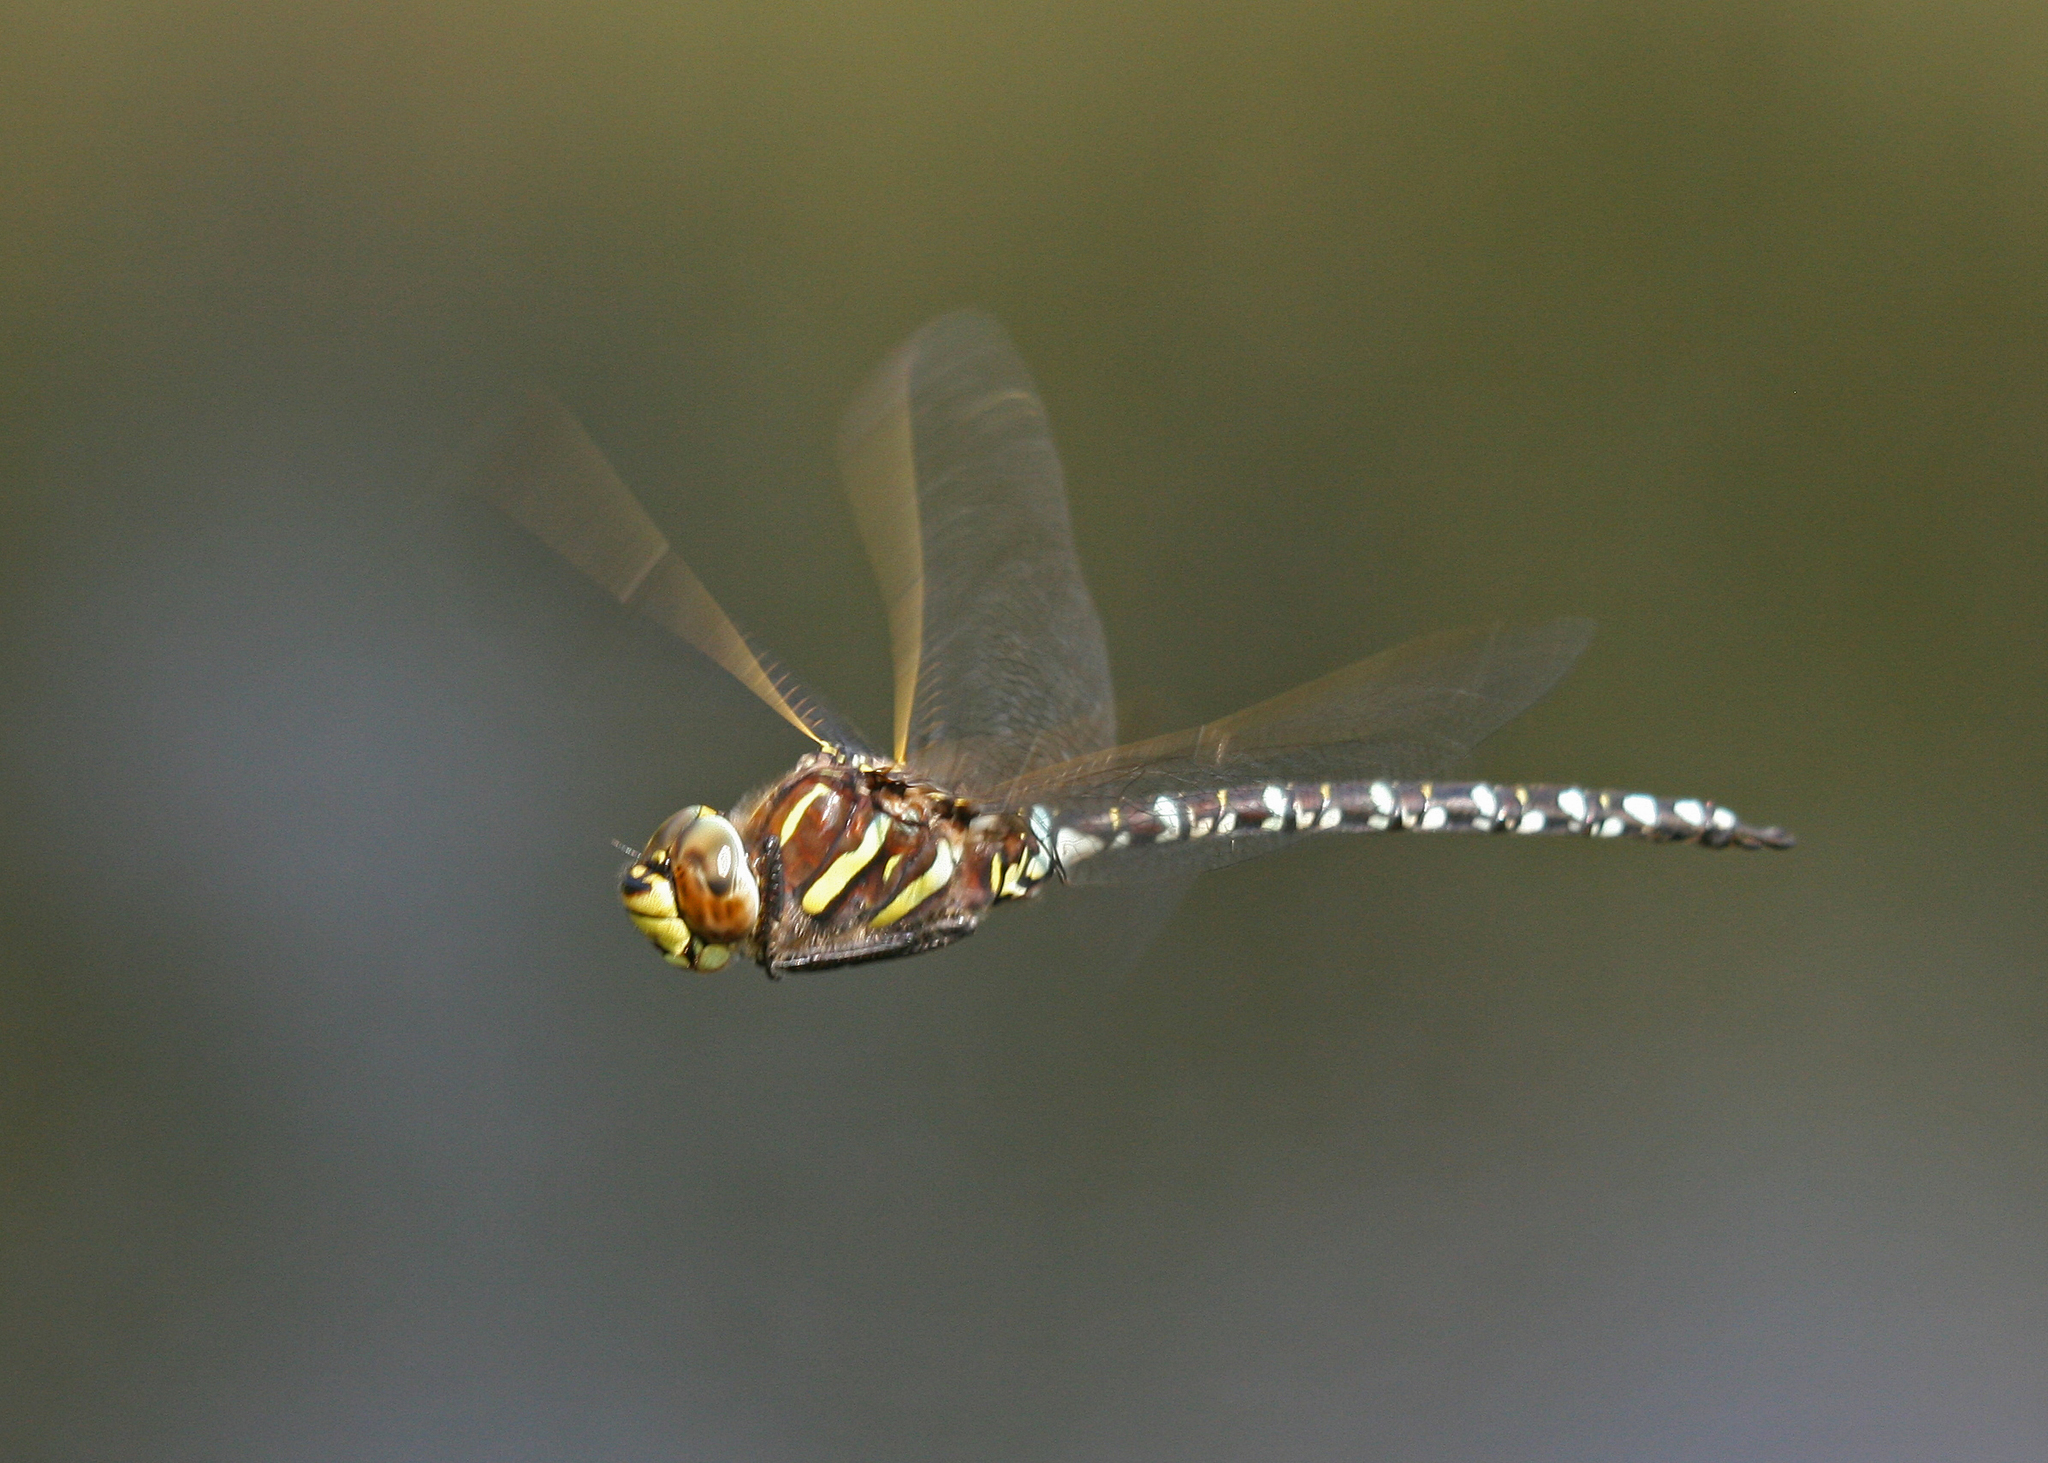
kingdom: Animalia
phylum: Arthropoda
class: Insecta
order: Odonata
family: Aeshnidae
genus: Aeshna
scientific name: Aeshna juncea
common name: Moorland hawker
